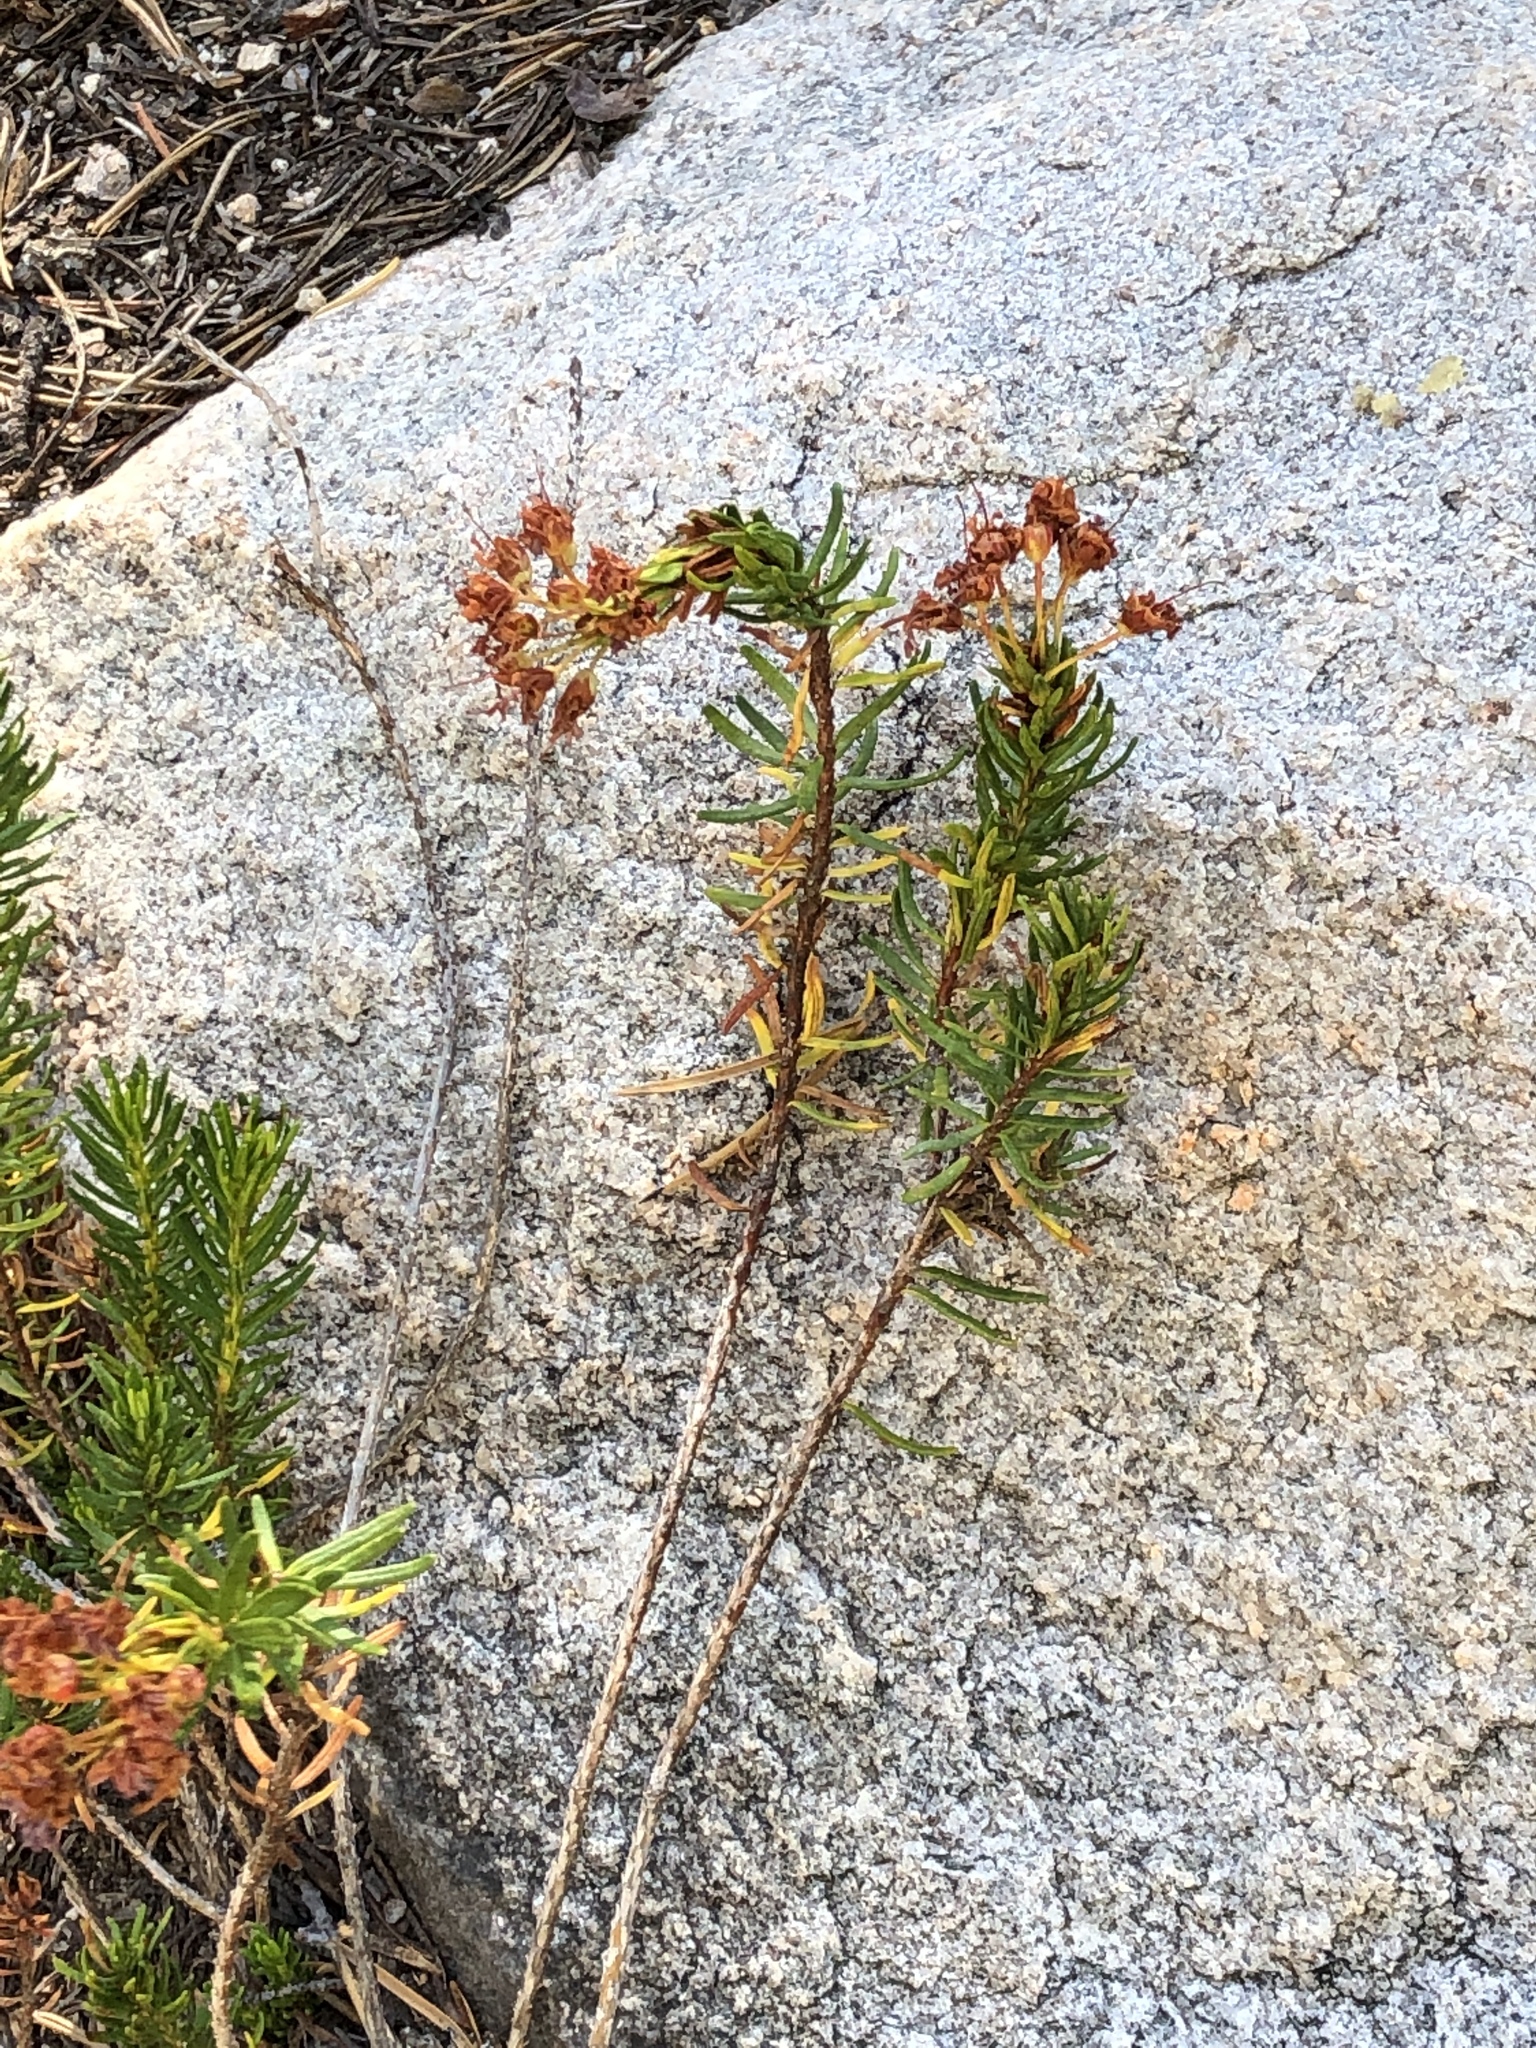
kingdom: Plantae
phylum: Tracheophyta
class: Magnoliopsida
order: Ericales
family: Ericaceae
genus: Phyllodoce
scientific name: Phyllodoce breweri
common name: Brewer's mountain-heather
